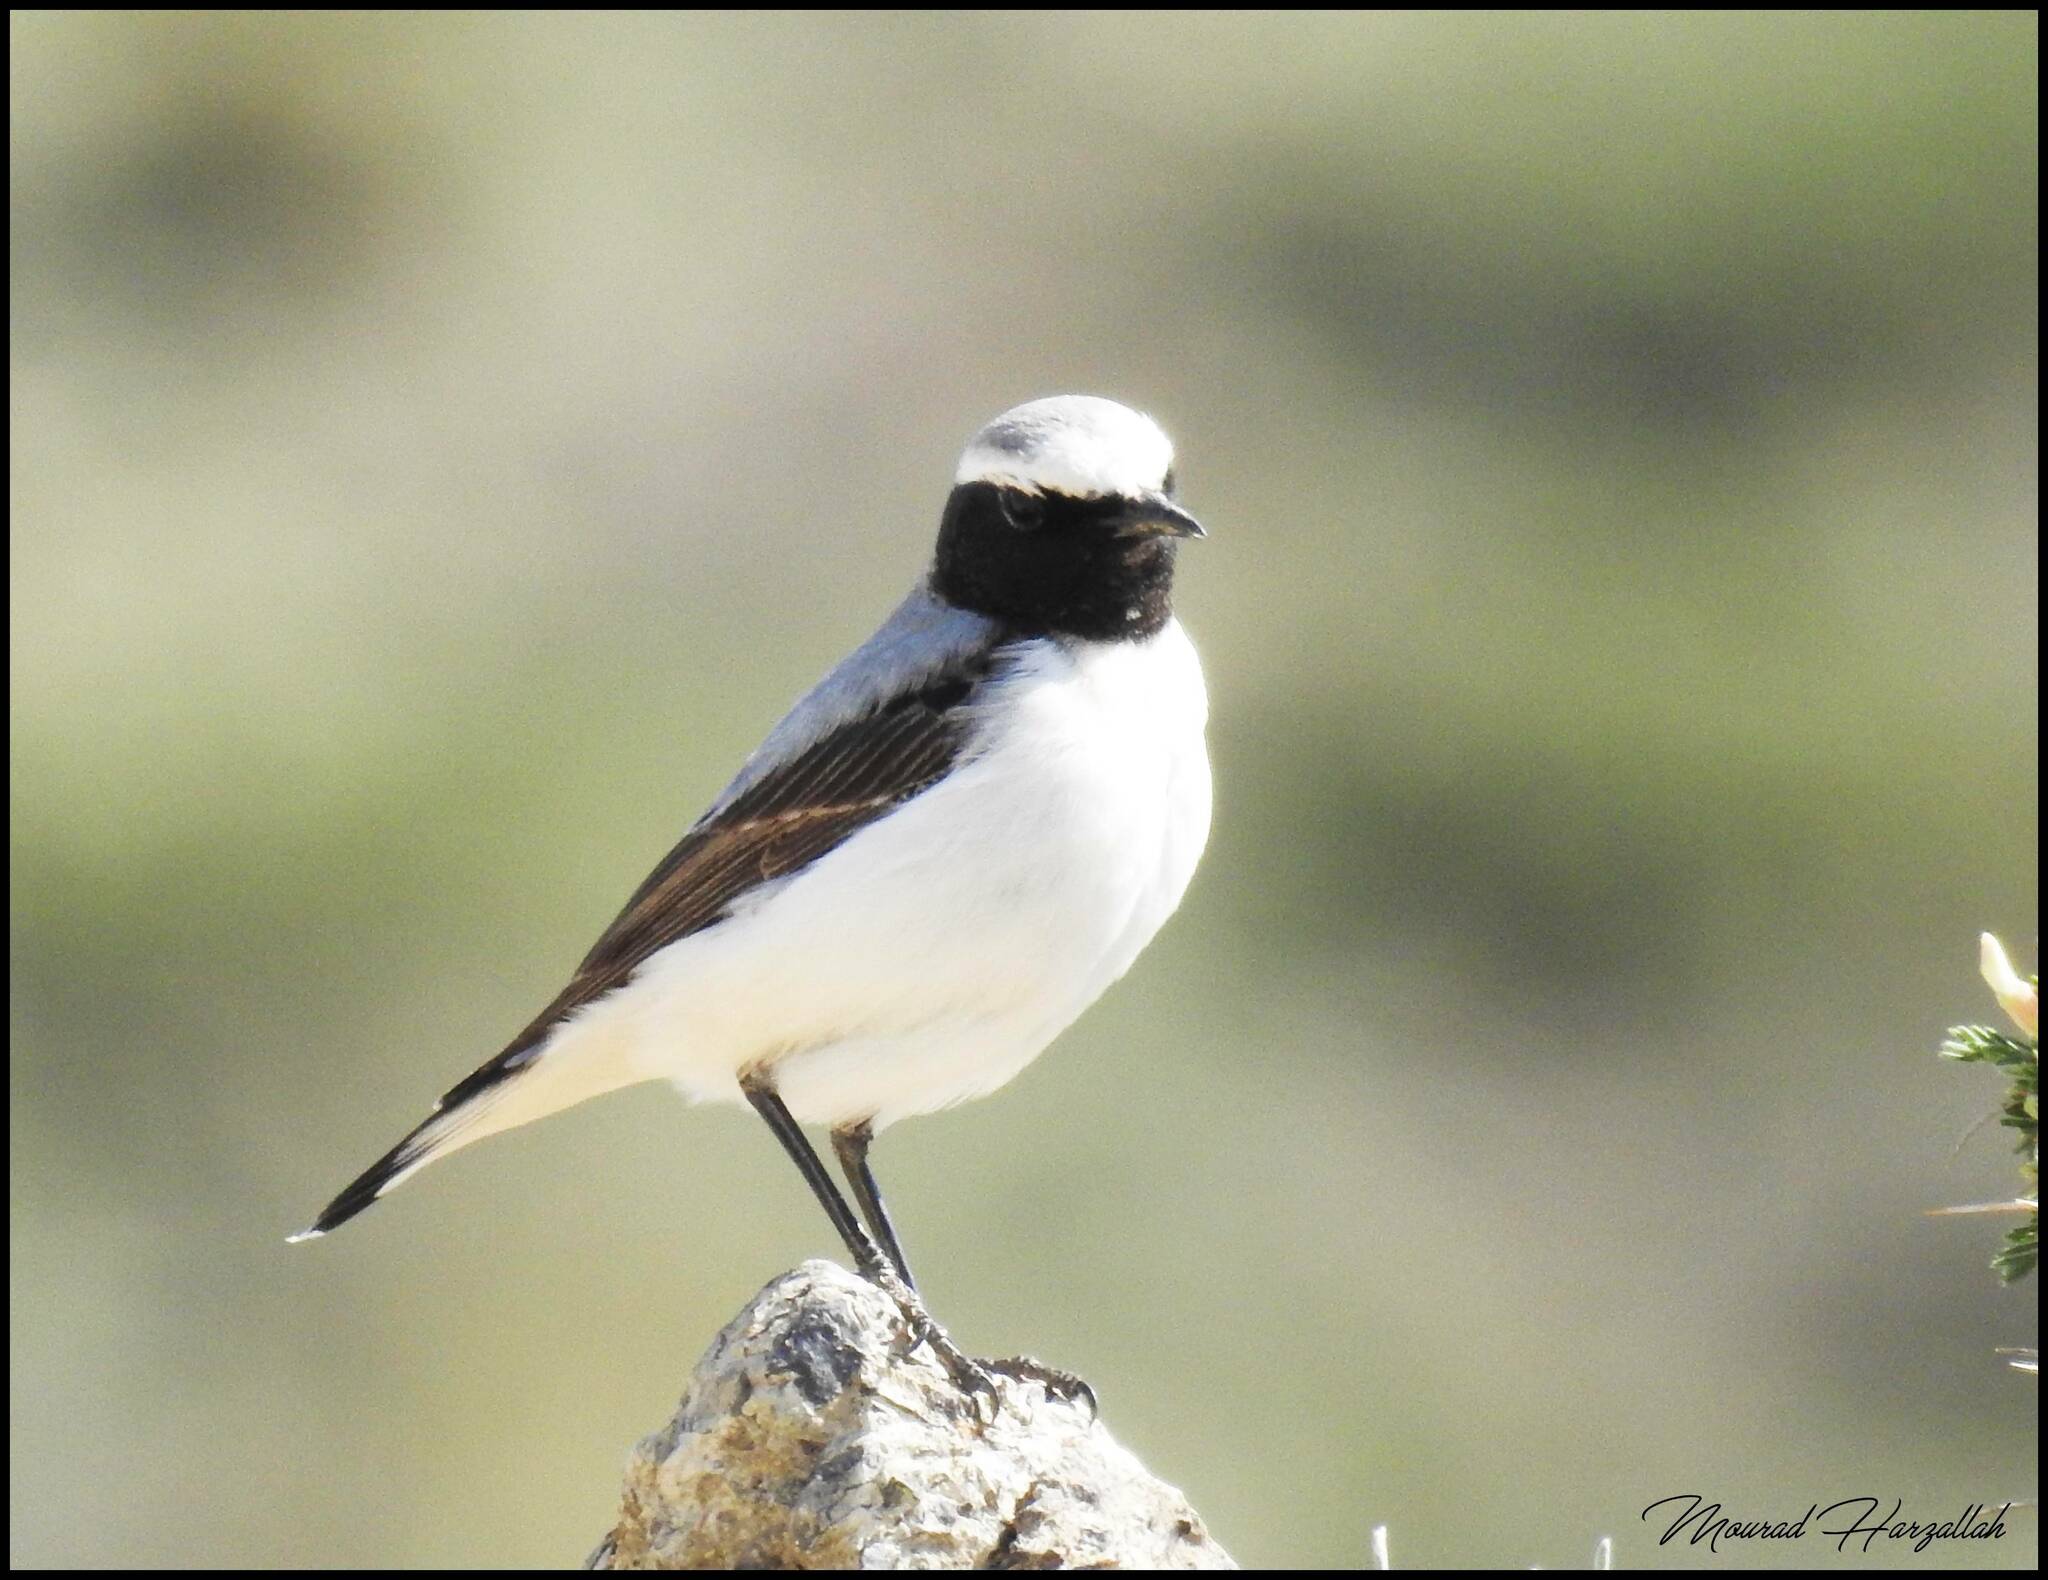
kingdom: Animalia
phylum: Chordata
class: Aves
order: Passeriformes
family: Muscicapidae
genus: Oenanthe
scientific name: Oenanthe oenanthe
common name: Northern wheatear
